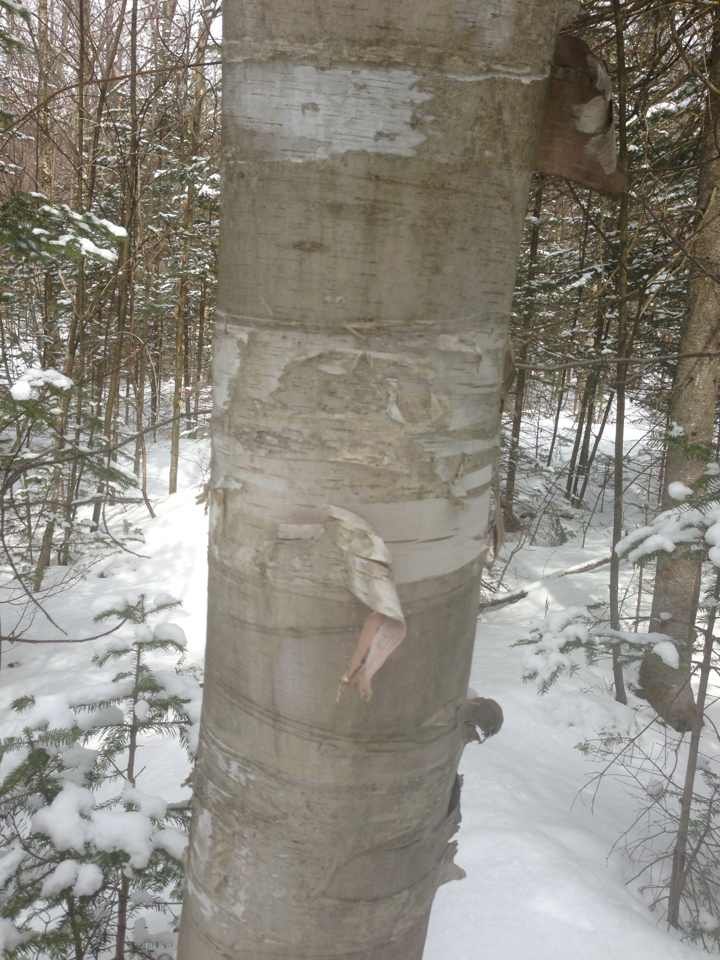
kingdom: Plantae
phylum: Tracheophyta
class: Magnoliopsida
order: Fagales
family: Betulaceae
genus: Betula
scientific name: Betula papyrifera
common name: Paper birch
